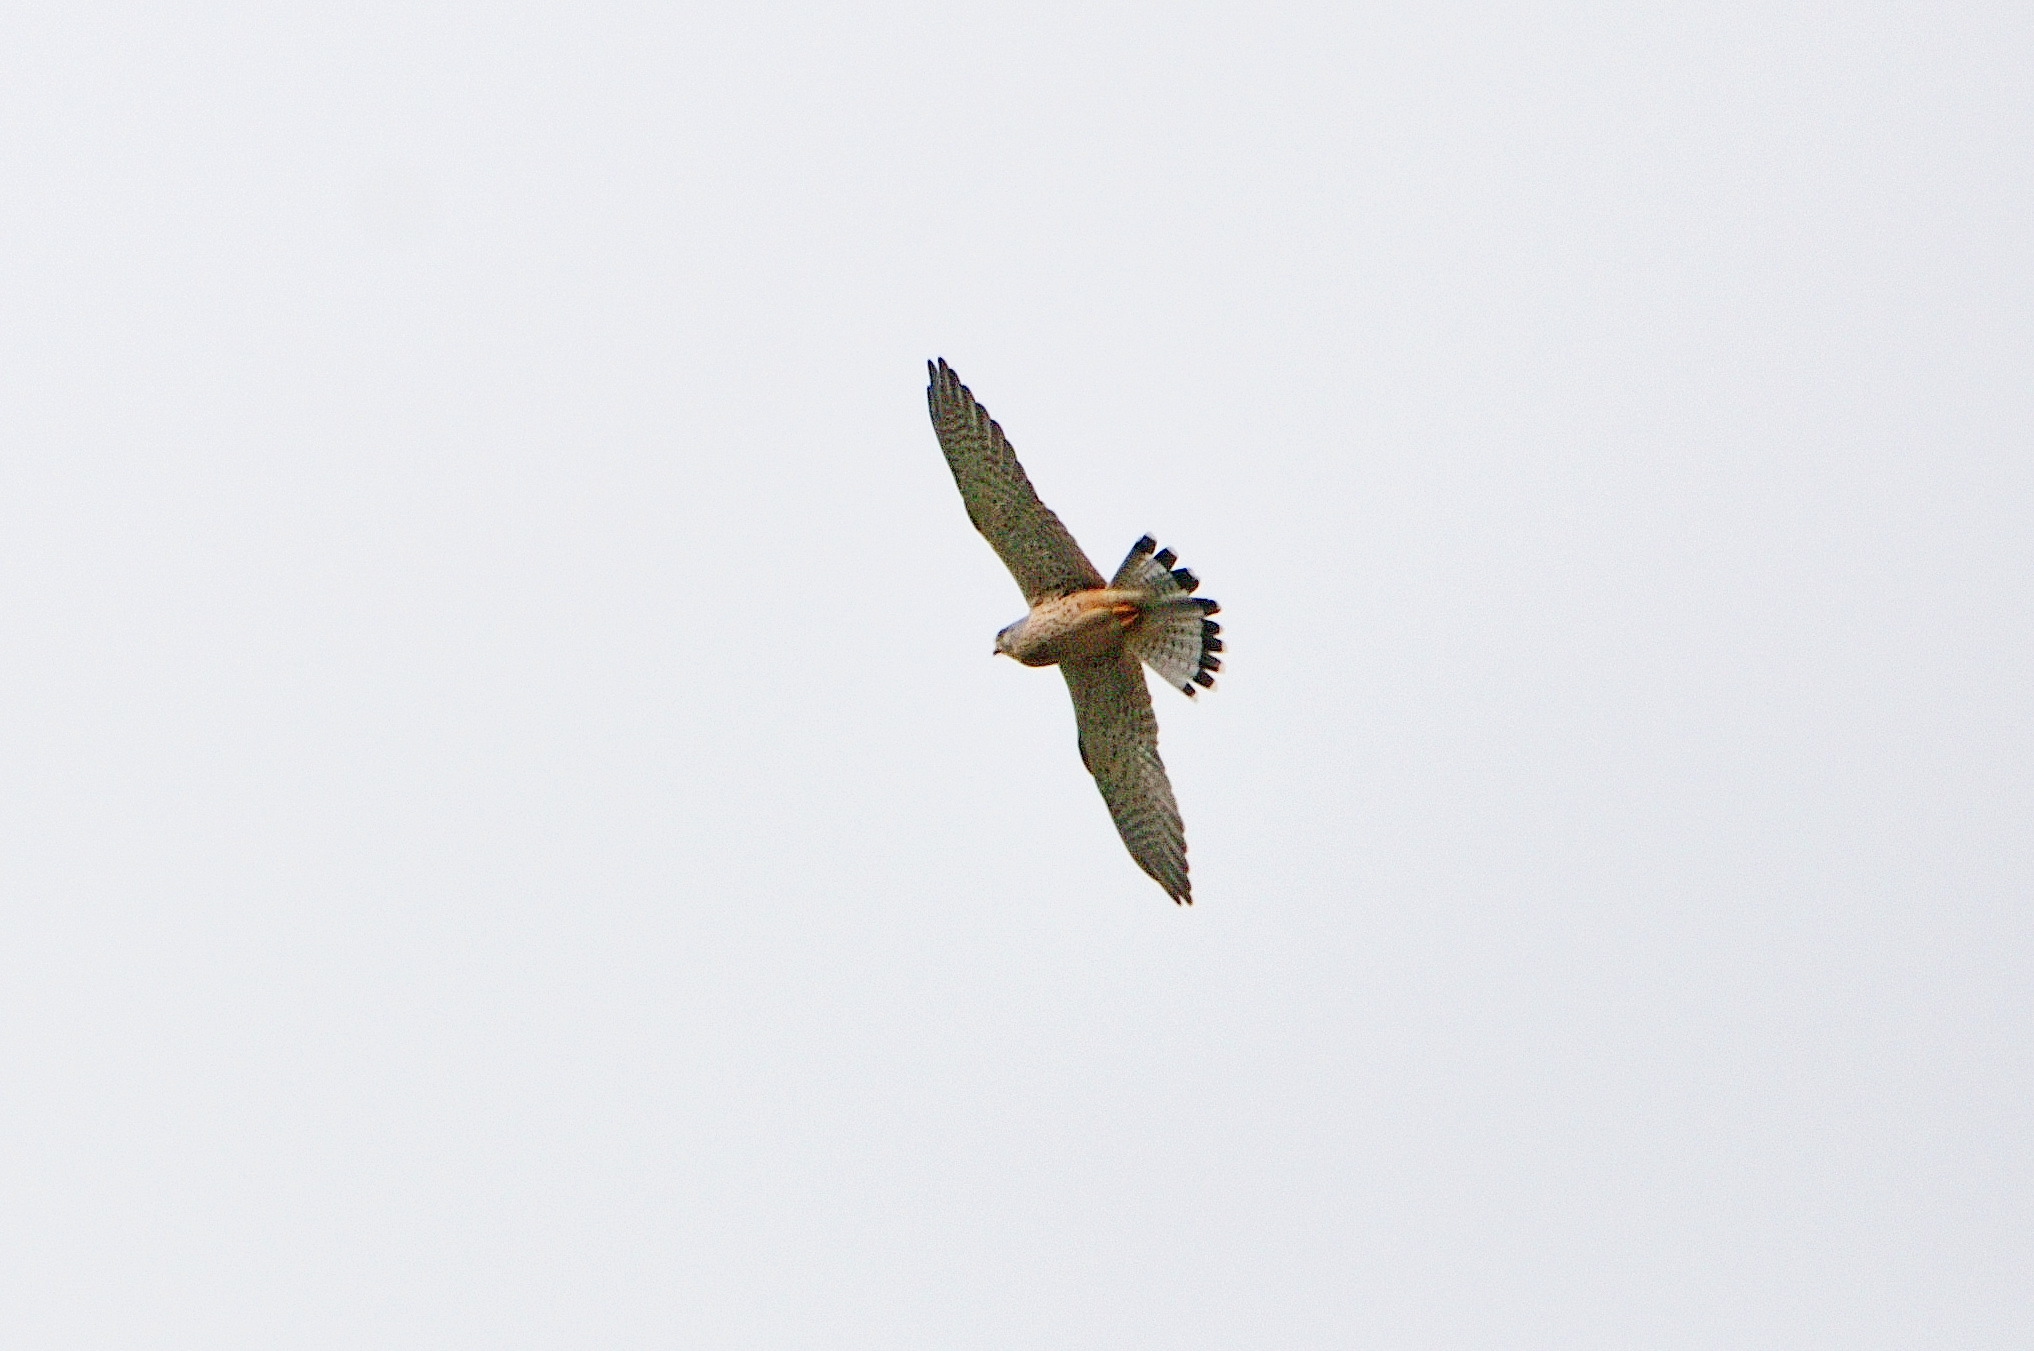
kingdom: Animalia
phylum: Chordata
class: Aves
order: Falconiformes
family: Falconidae
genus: Falco
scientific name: Falco tinnunculus
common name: Common kestrel
